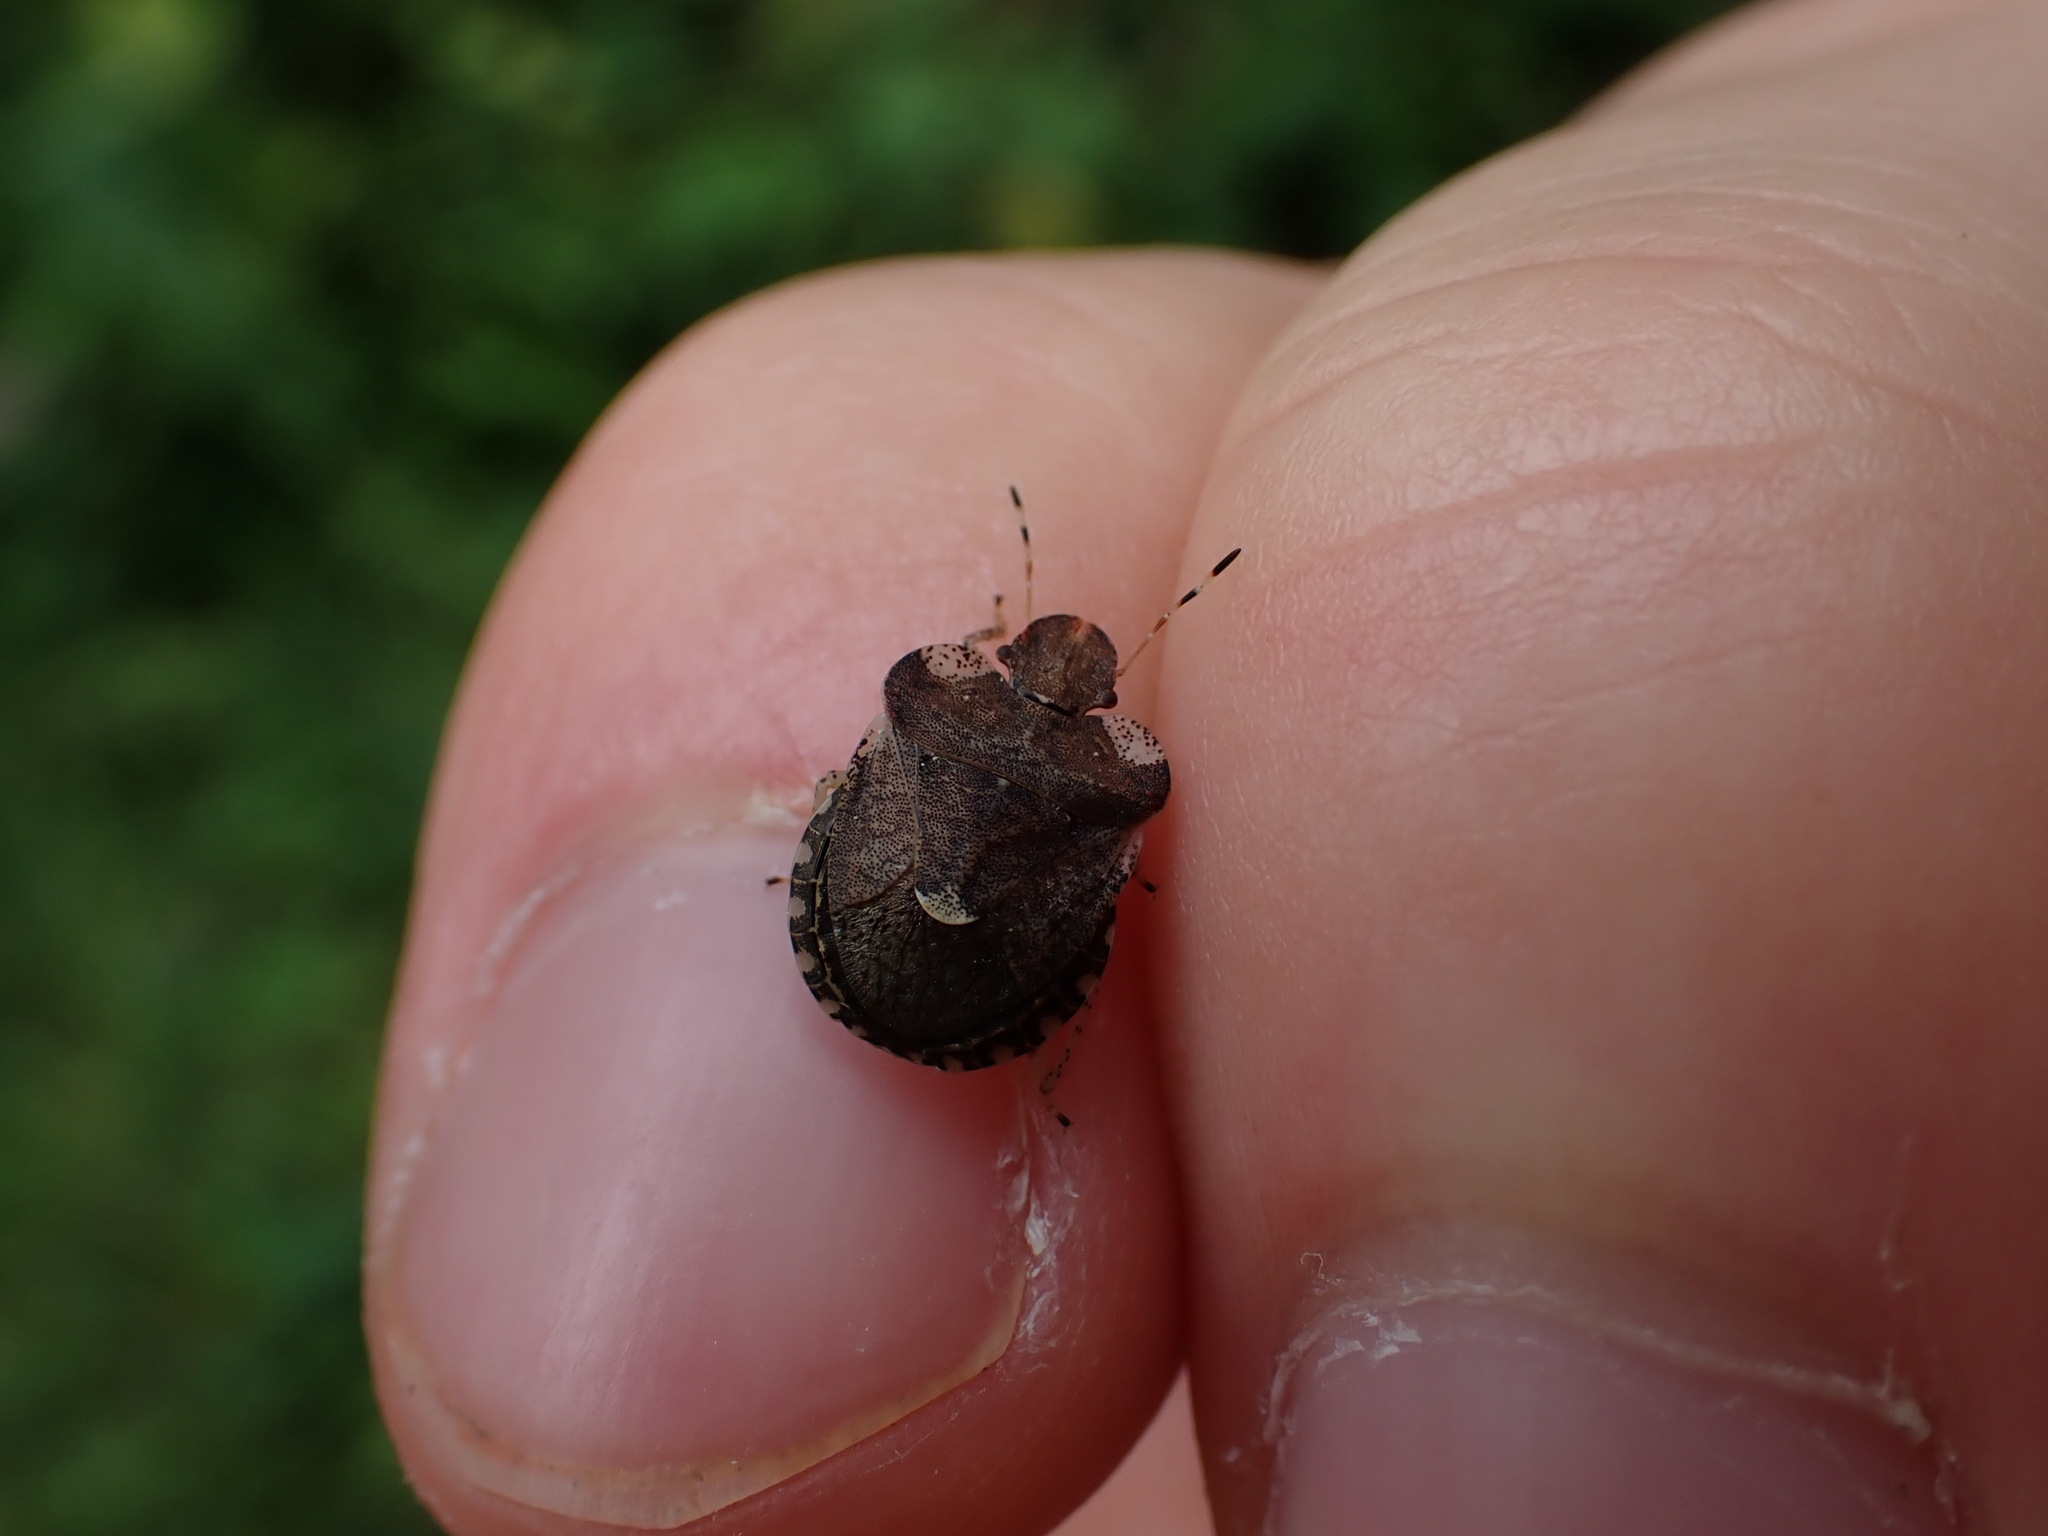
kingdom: Animalia
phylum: Arthropoda
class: Insecta
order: Hemiptera
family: Pentatomidae
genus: Dyroderes
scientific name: Dyroderes umbraculatus
